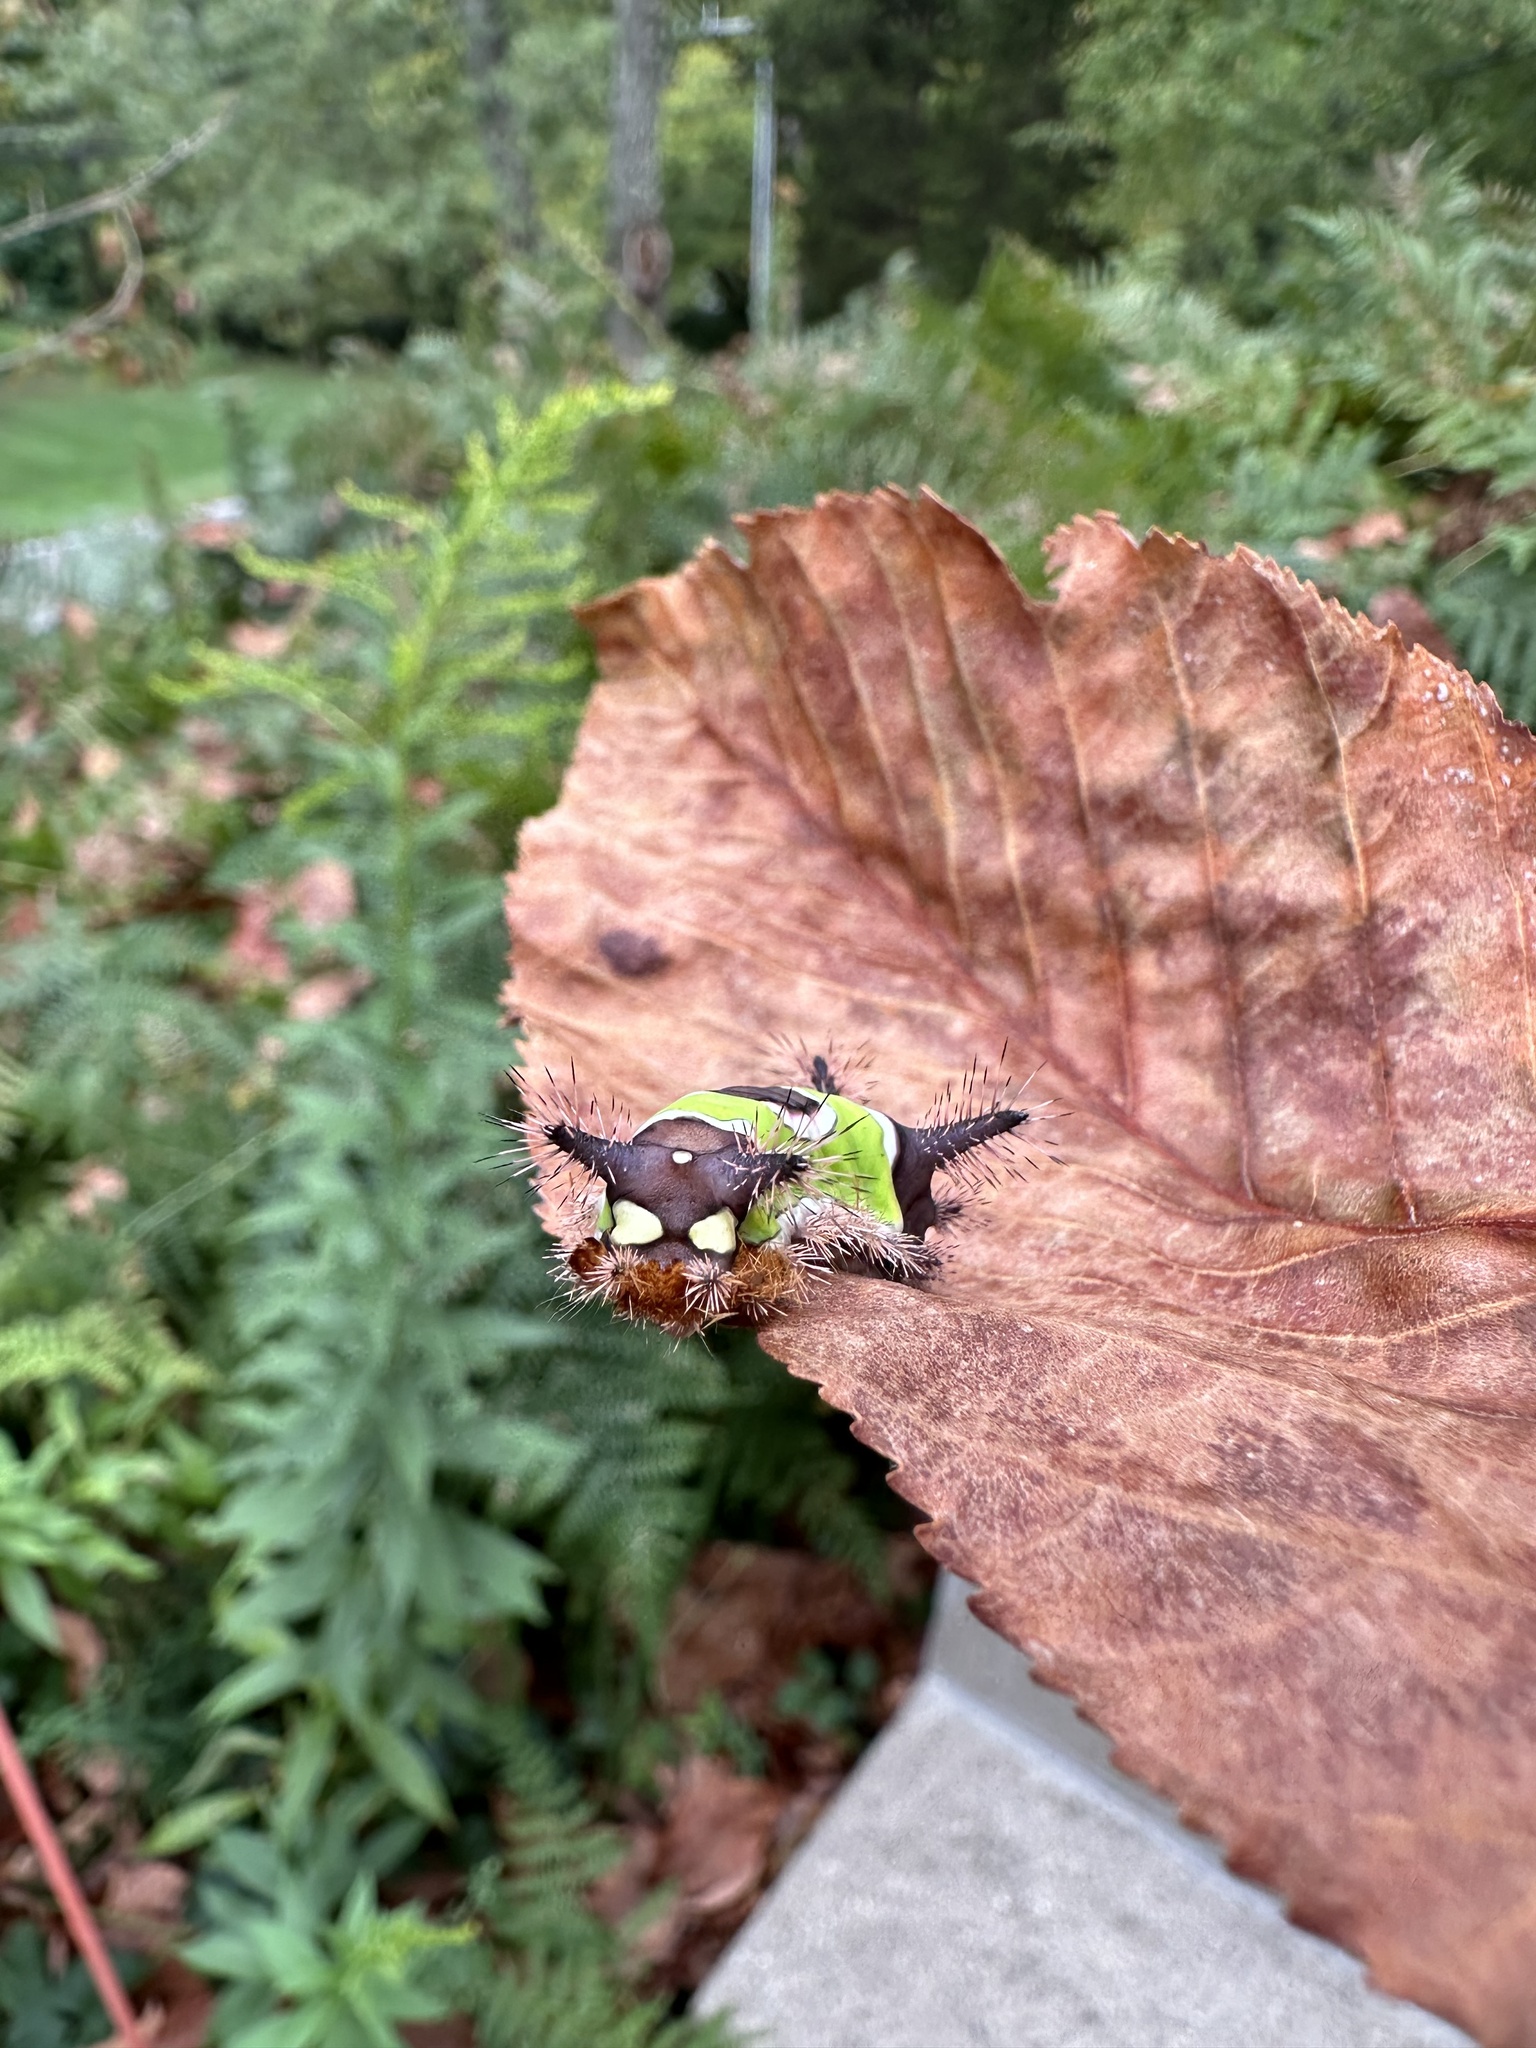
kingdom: Animalia
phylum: Arthropoda
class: Insecta
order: Lepidoptera
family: Limacodidae
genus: Acharia
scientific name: Acharia stimulea
